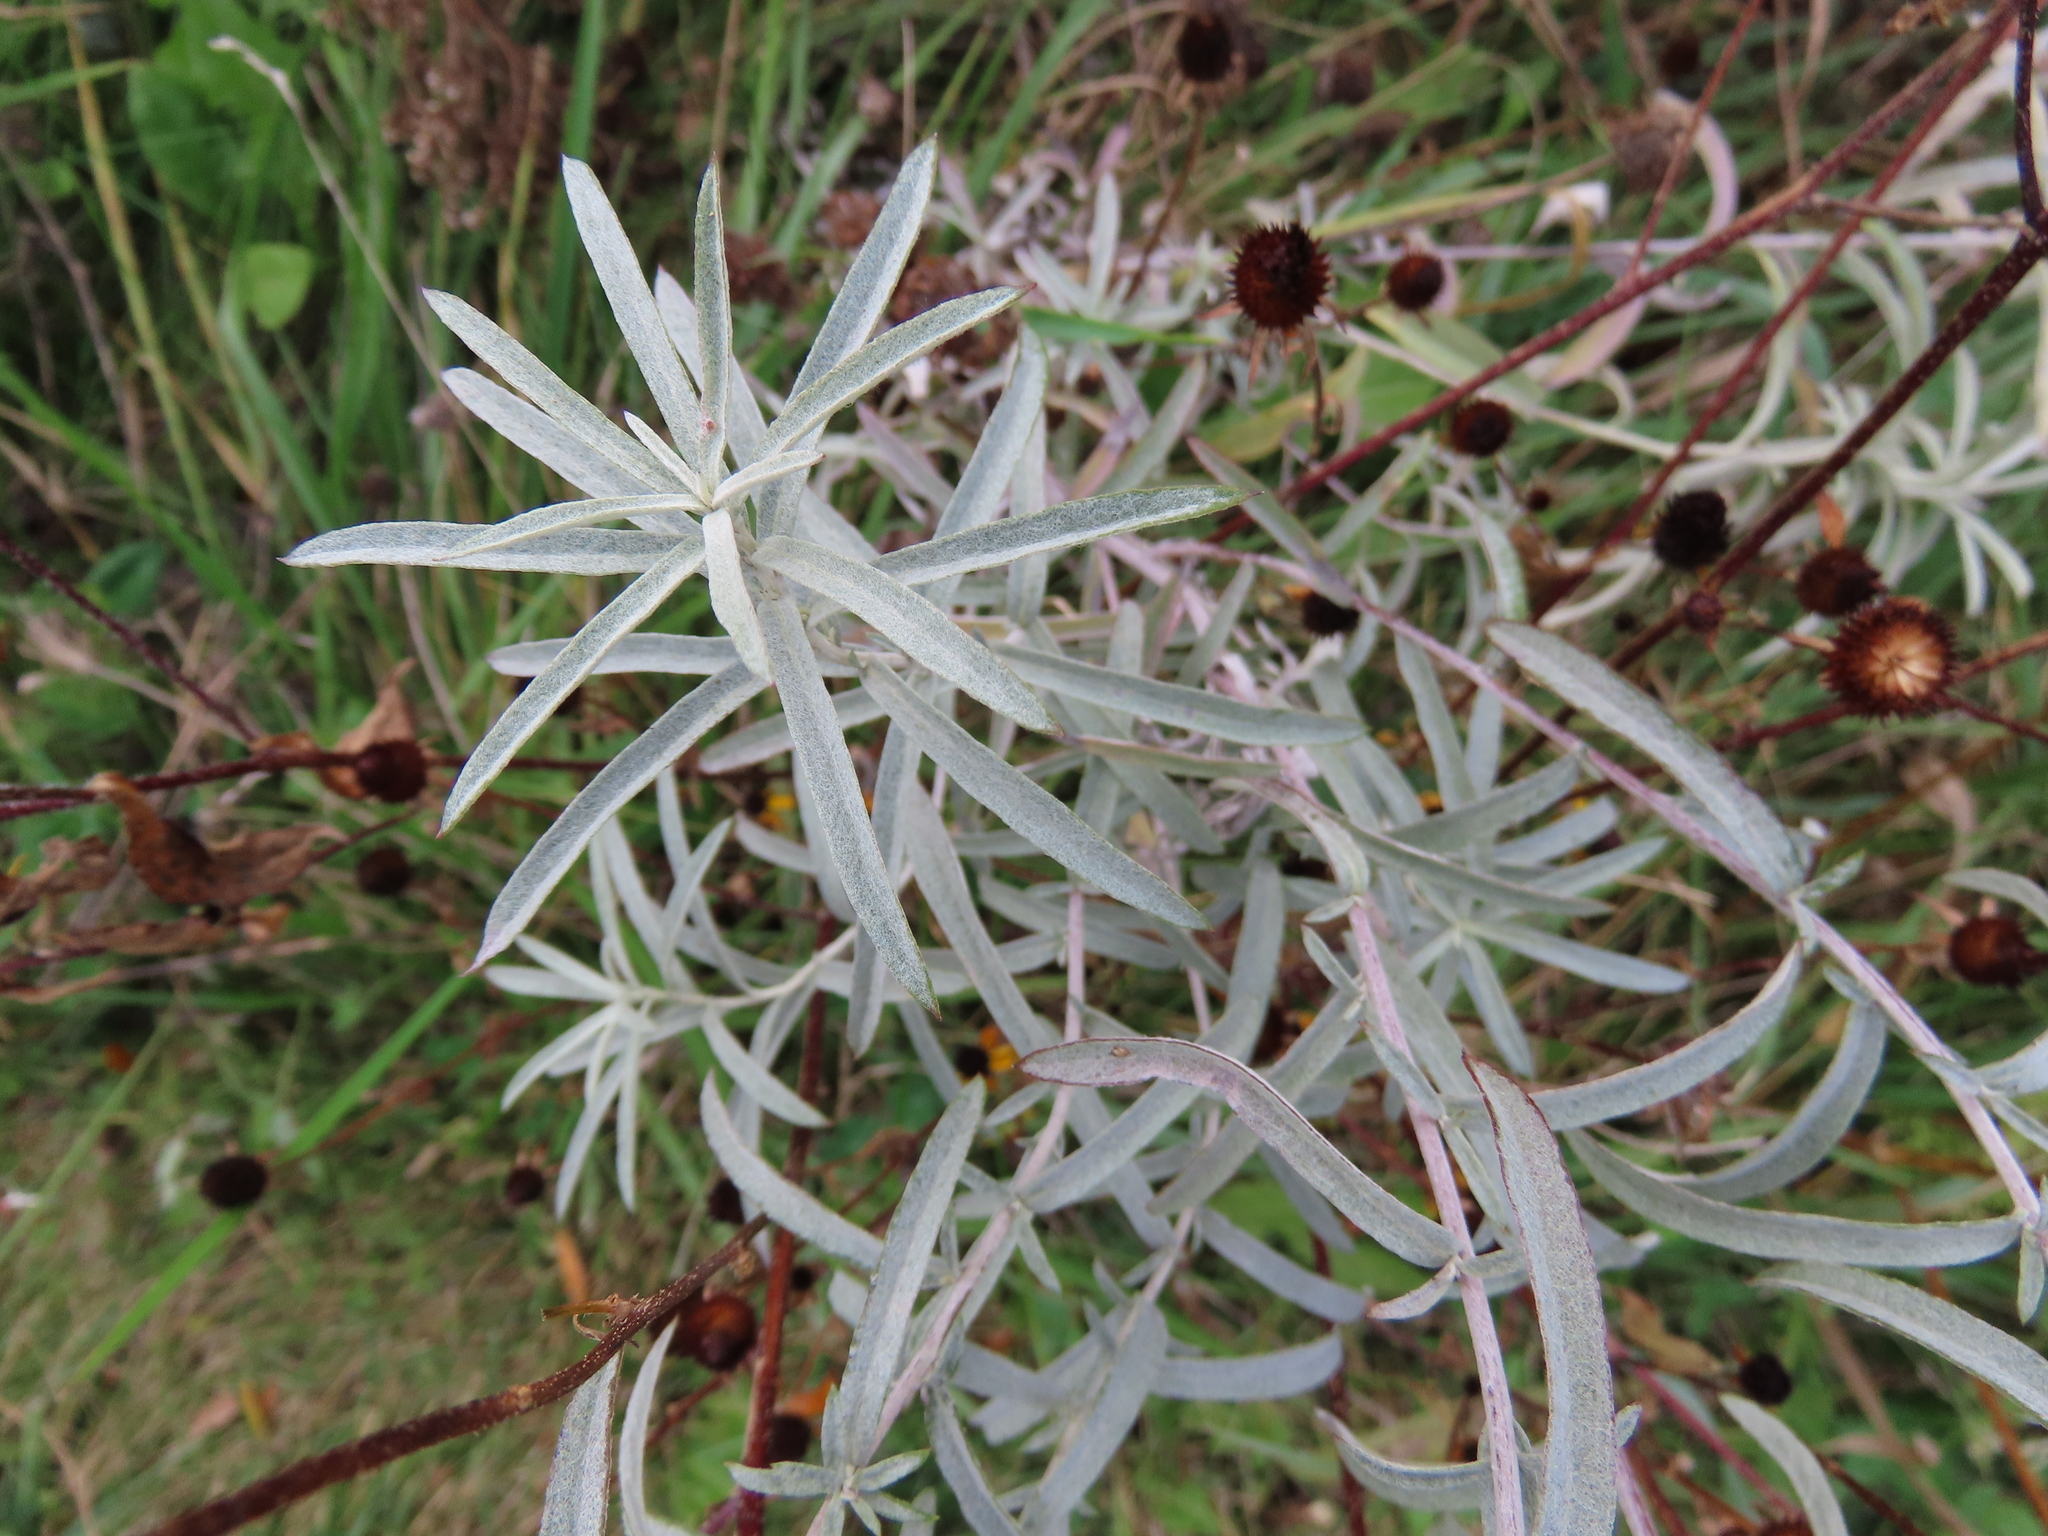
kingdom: Plantae
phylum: Tracheophyta
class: Magnoliopsida
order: Asterales
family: Asteraceae
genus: Artemisia
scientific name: Artemisia ludoviciana
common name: Western mugwort
